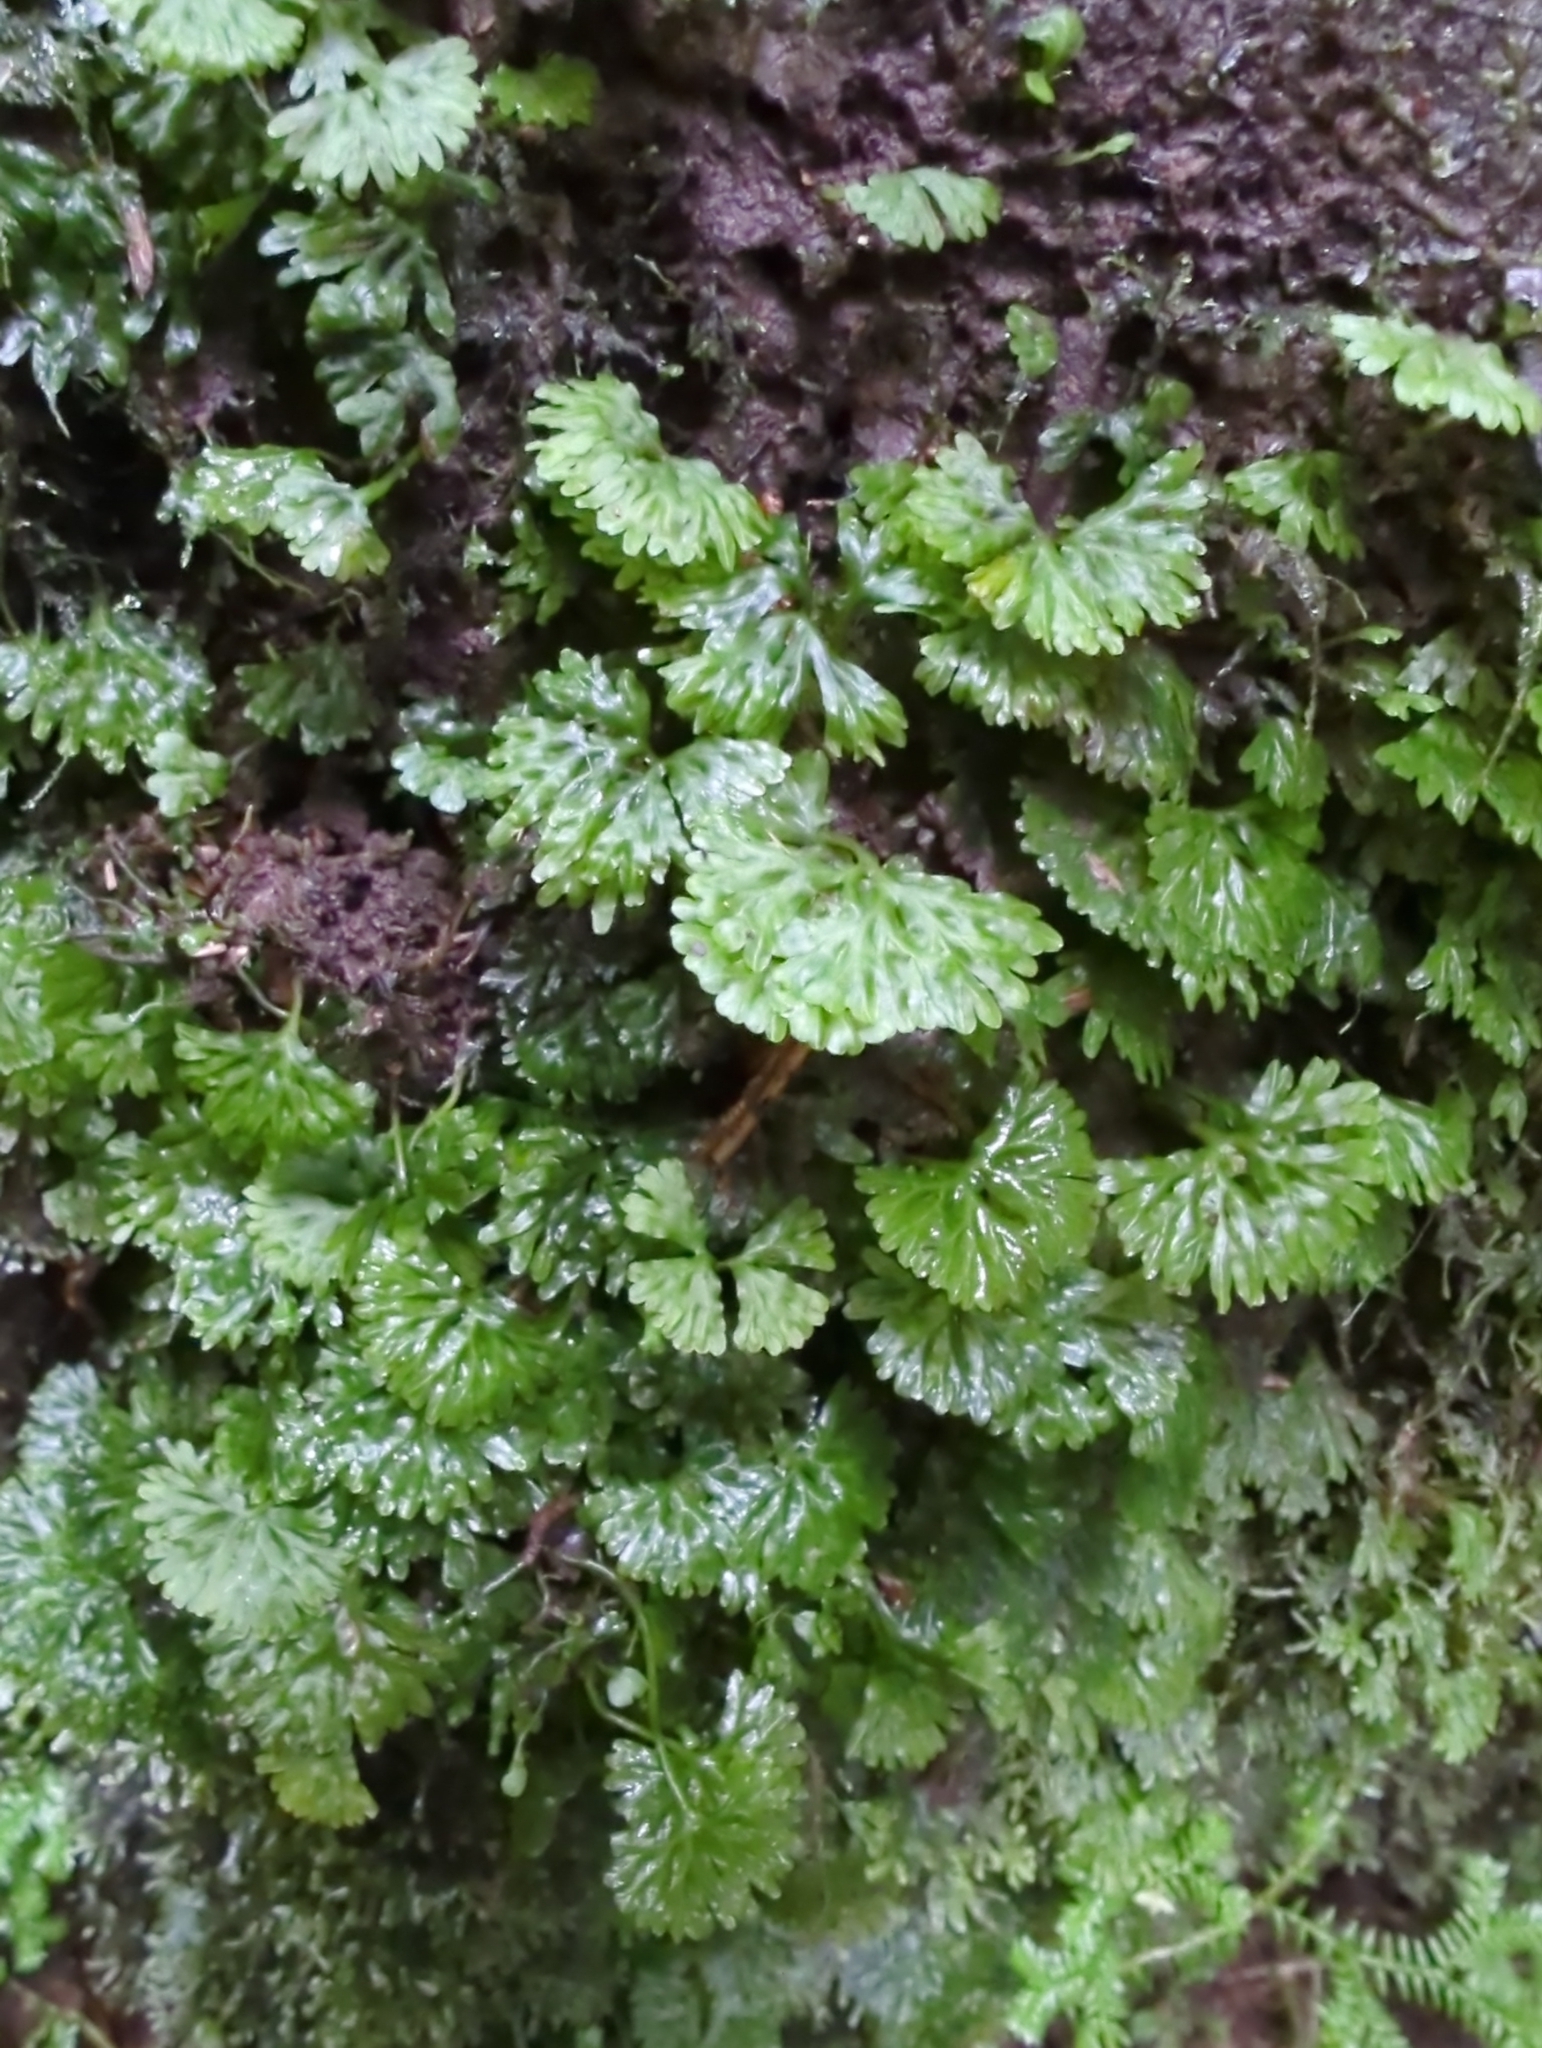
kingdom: Plantae
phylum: Marchantiophyta
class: Jungermanniopsida
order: Pallaviciniales
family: Hymenophytaceae
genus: Hymenophyton
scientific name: Hymenophyton flabellatum
